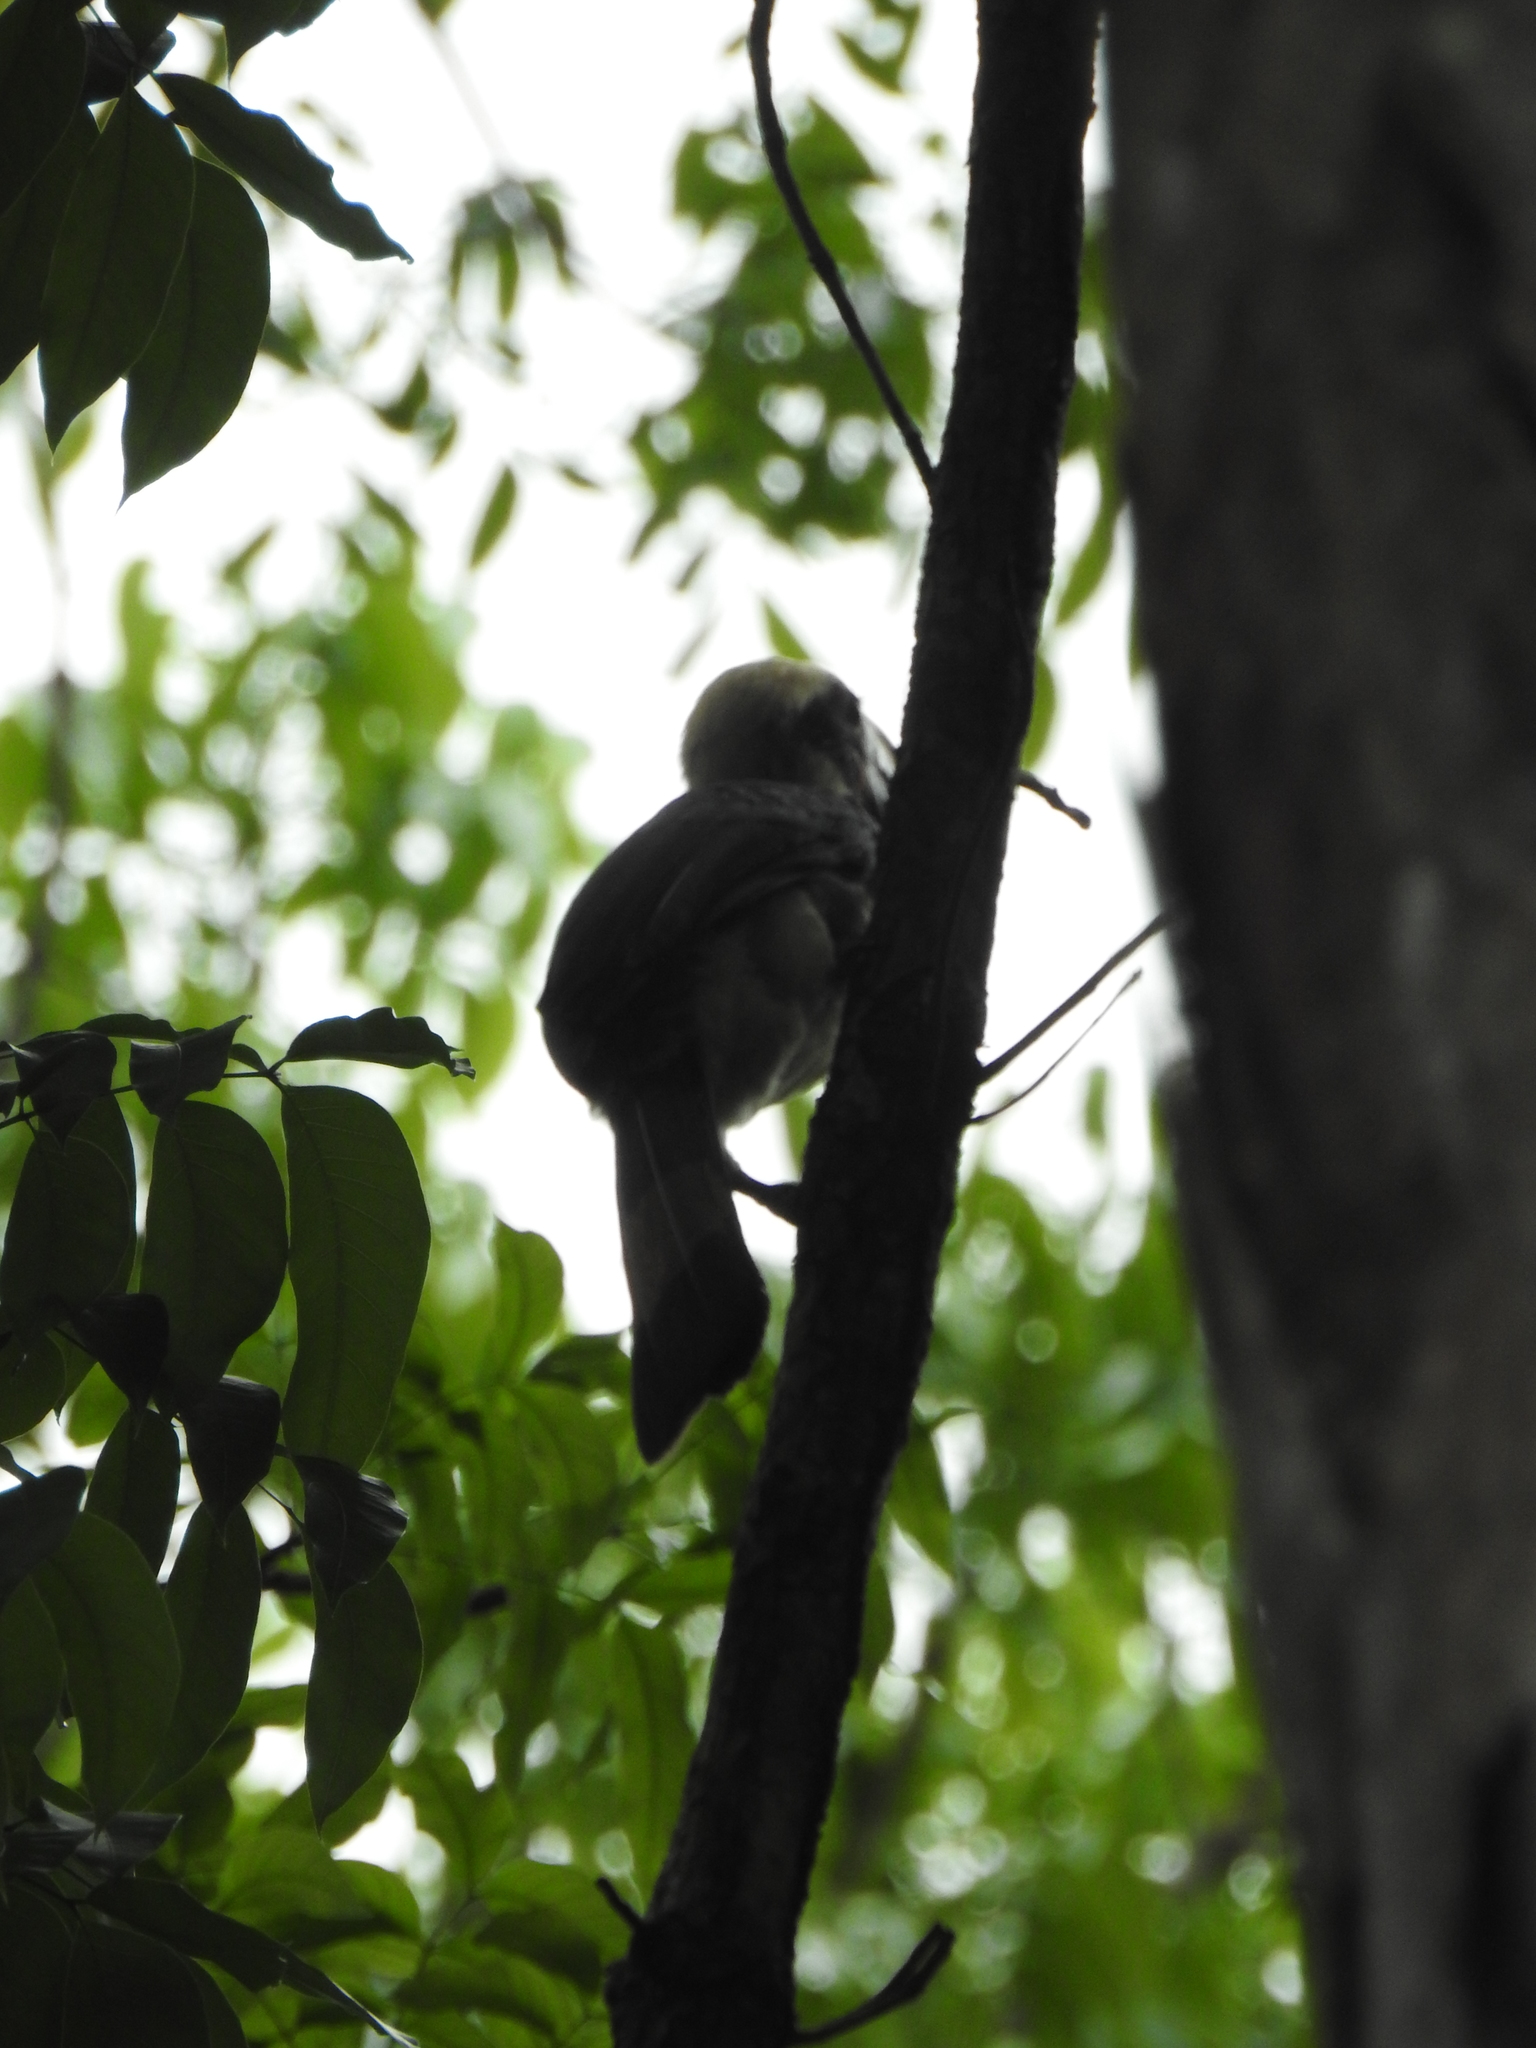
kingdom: Animalia
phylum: Chordata
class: Aves
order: Bucerotiformes
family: Bucerotidae
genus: Penelopides
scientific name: Penelopides manillae
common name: Luzon hornbill
